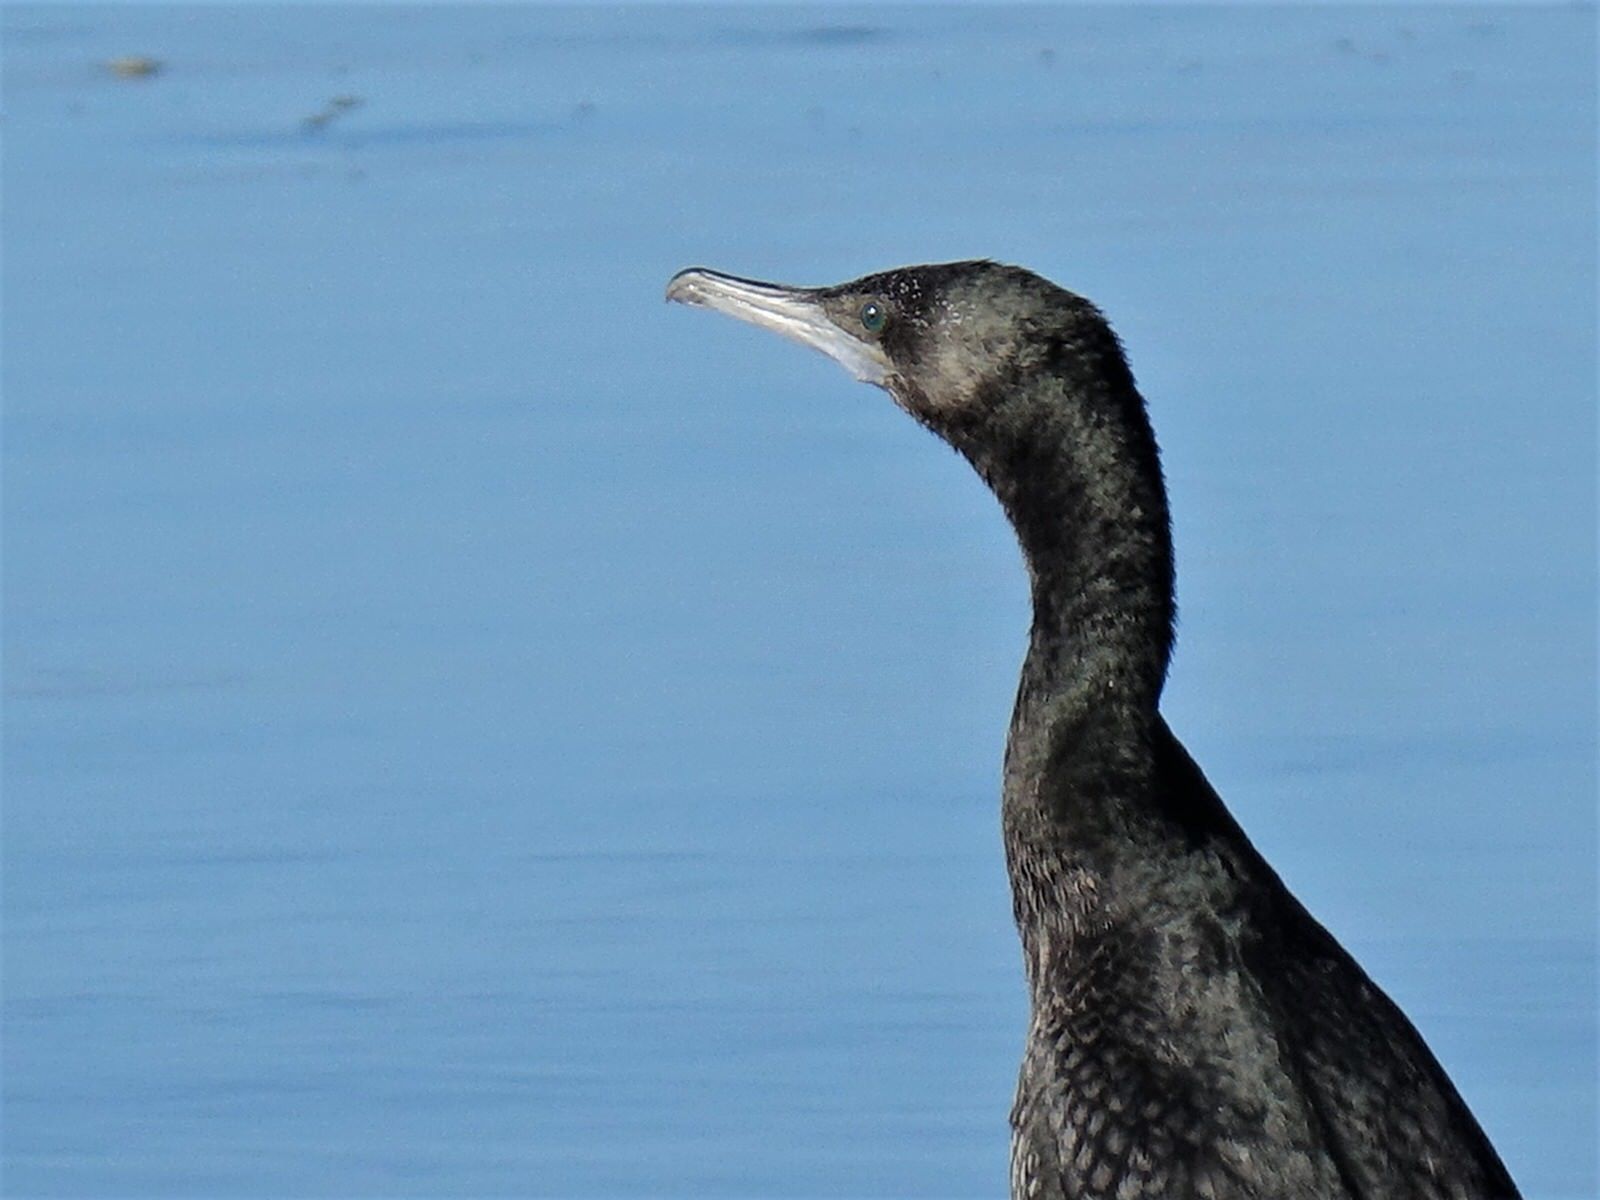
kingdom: Animalia
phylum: Chordata
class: Aves
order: Suliformes
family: Phalacrocoracidae
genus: Phalacrocorax
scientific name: Phalacrocorax sulcirostris
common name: Little black cormorant
